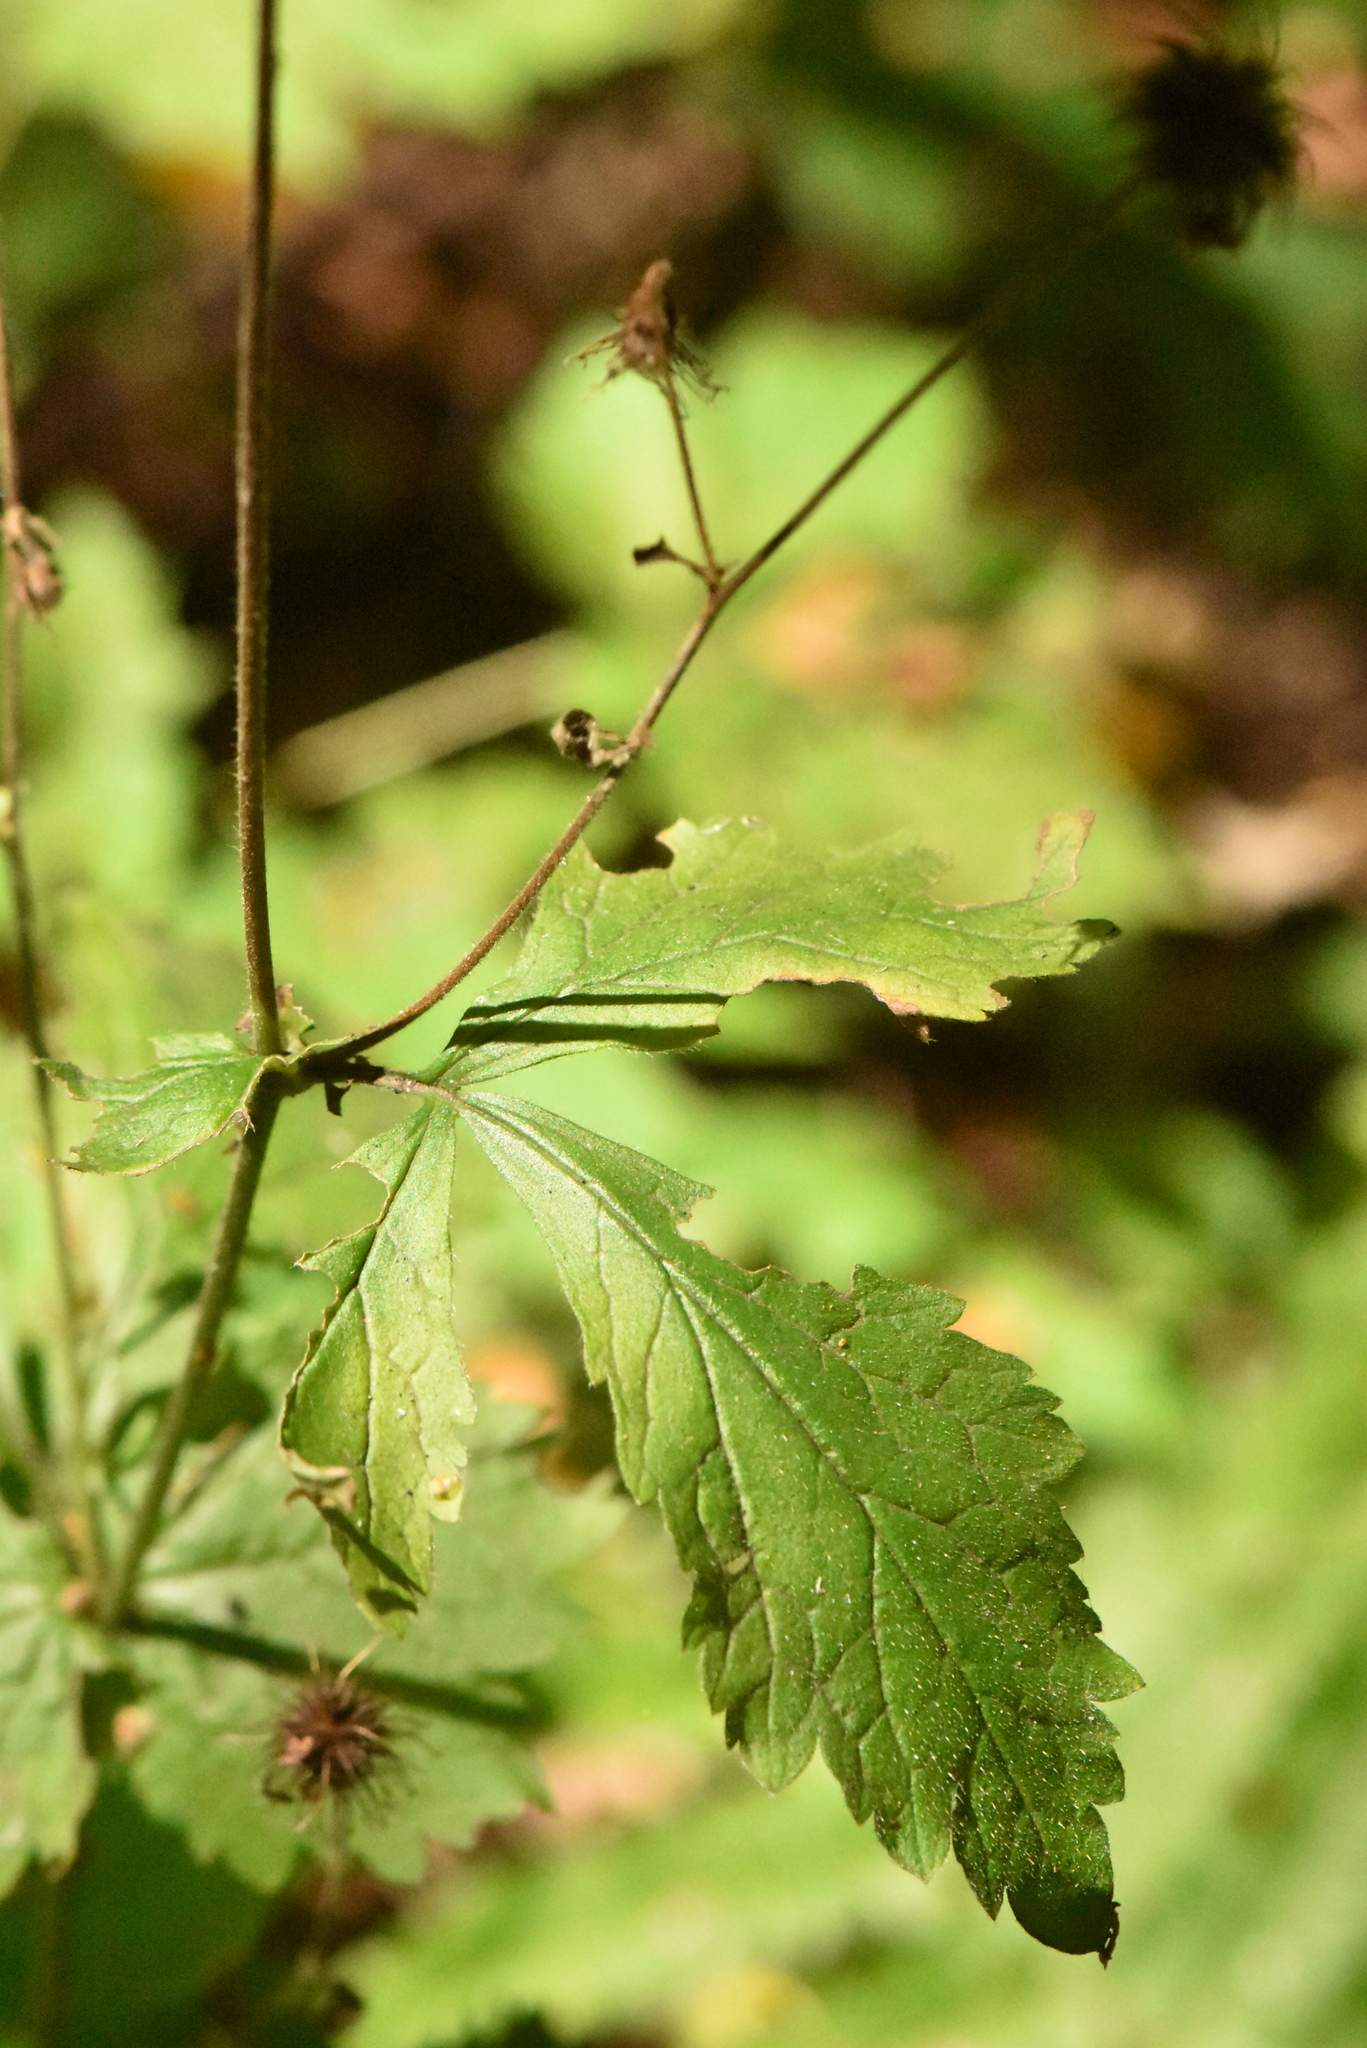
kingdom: Plantae
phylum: Tracheophyta
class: Magnoliopsida
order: Rosales
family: Rosaceae
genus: Geum
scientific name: Geum urbanum
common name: Wood avens
